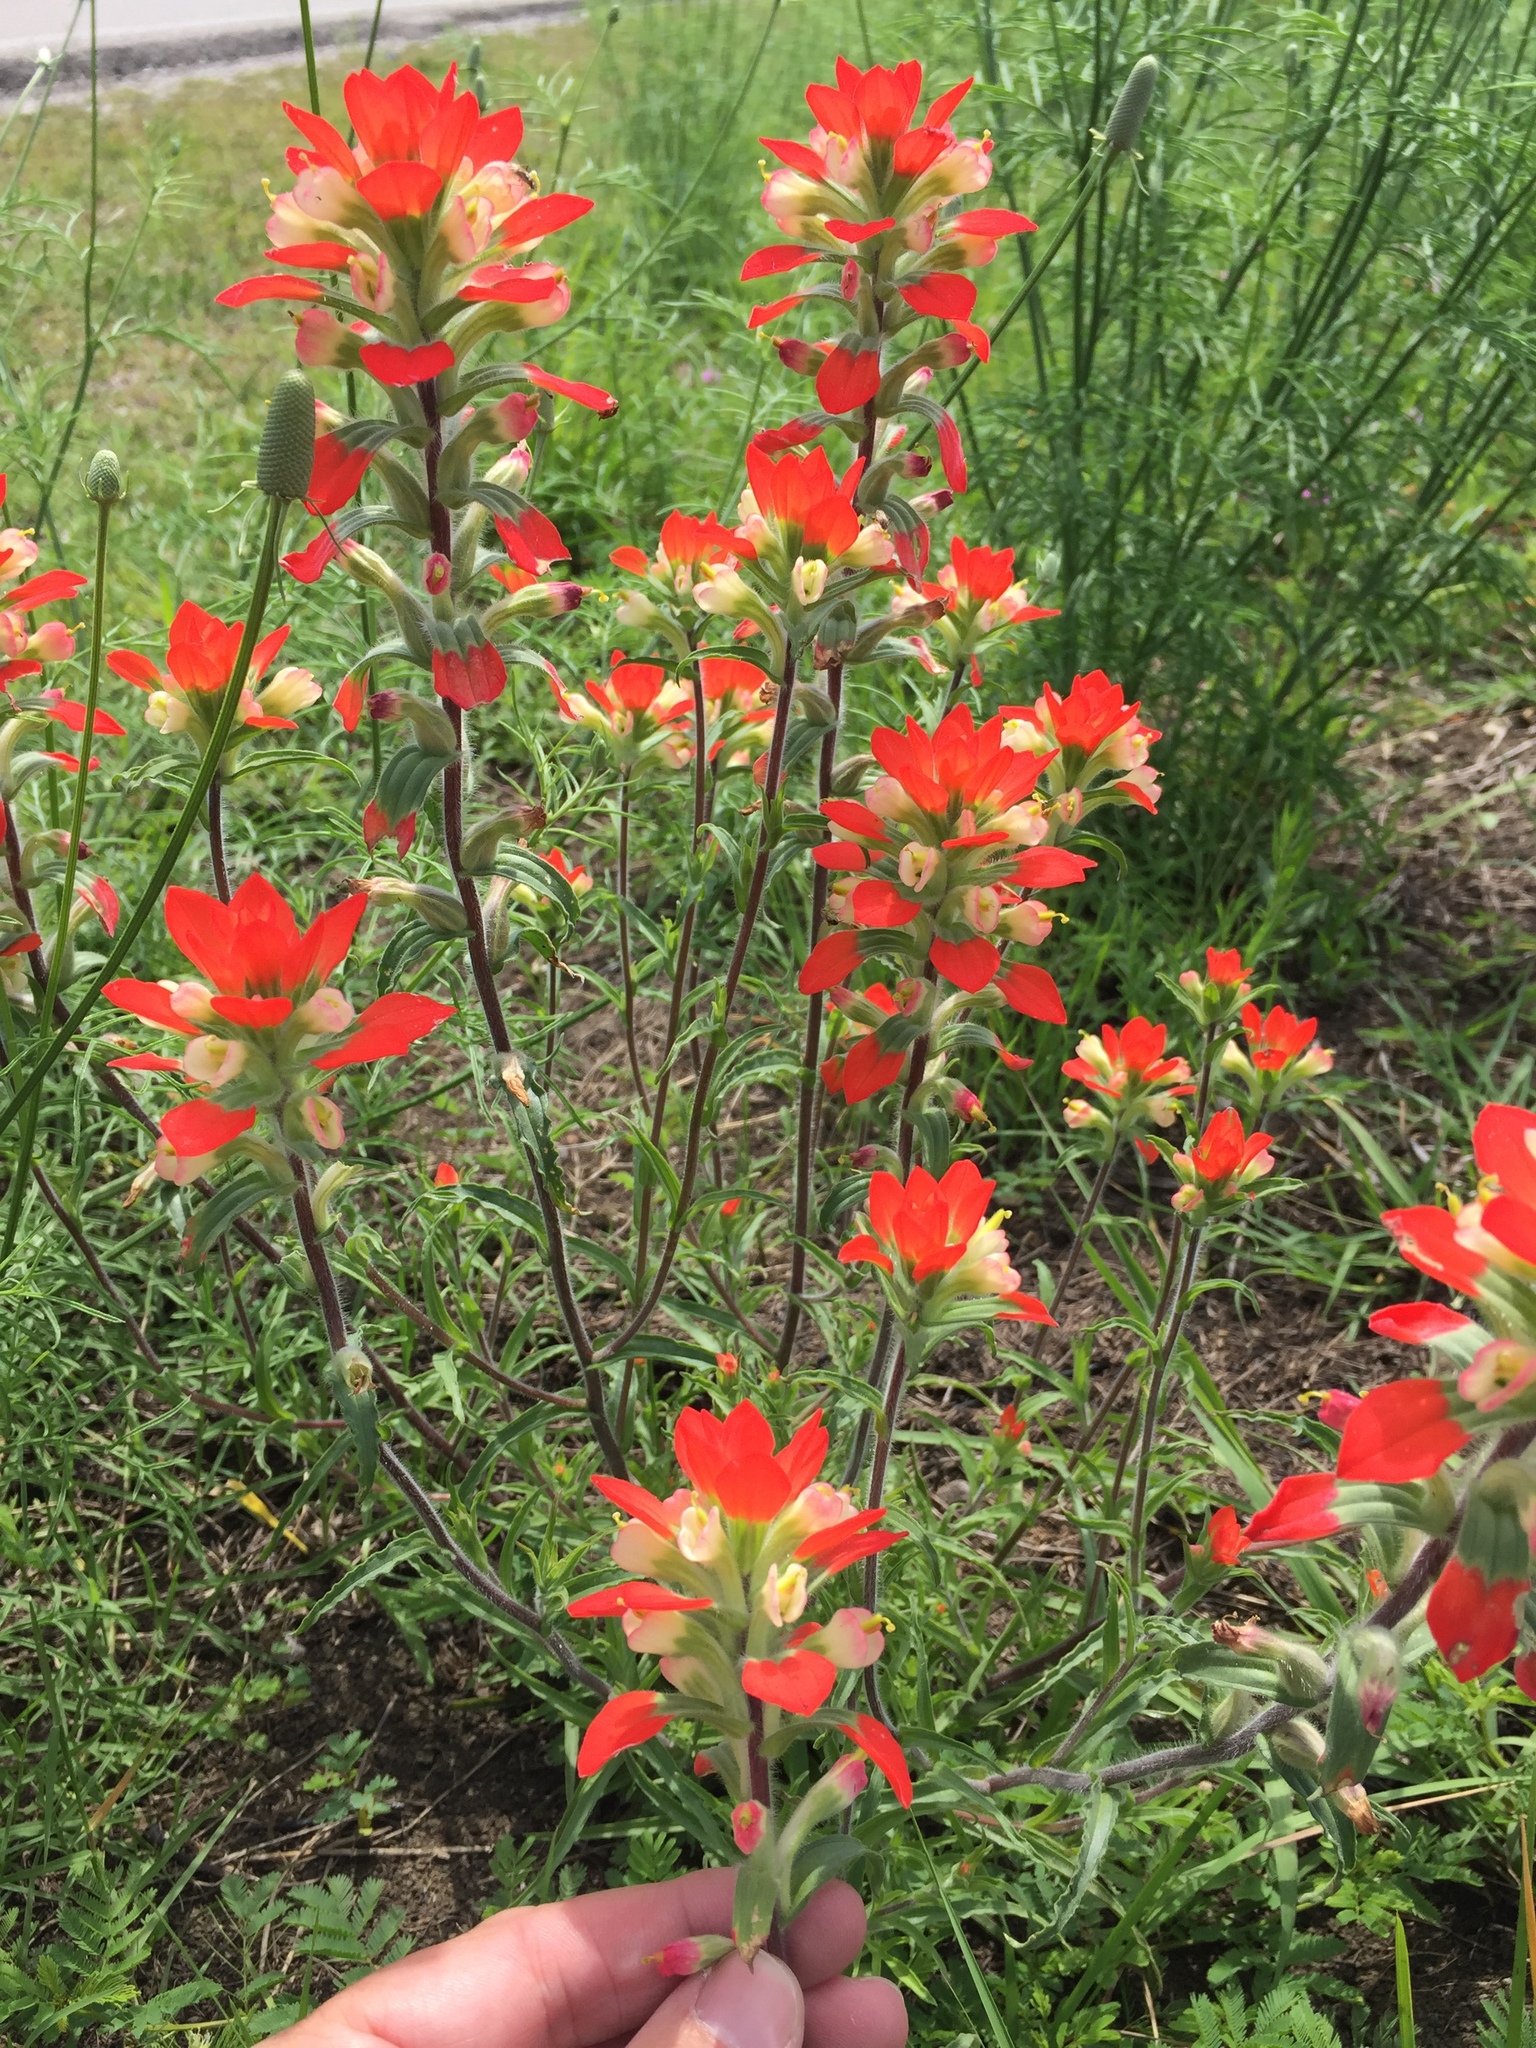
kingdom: Plantae
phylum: Tracheophyta
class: Magnoliopsida
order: Lamiales
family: Orobanchaceae
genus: Castilleja
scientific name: Castilleja indivisa
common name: Texas paintbrush
